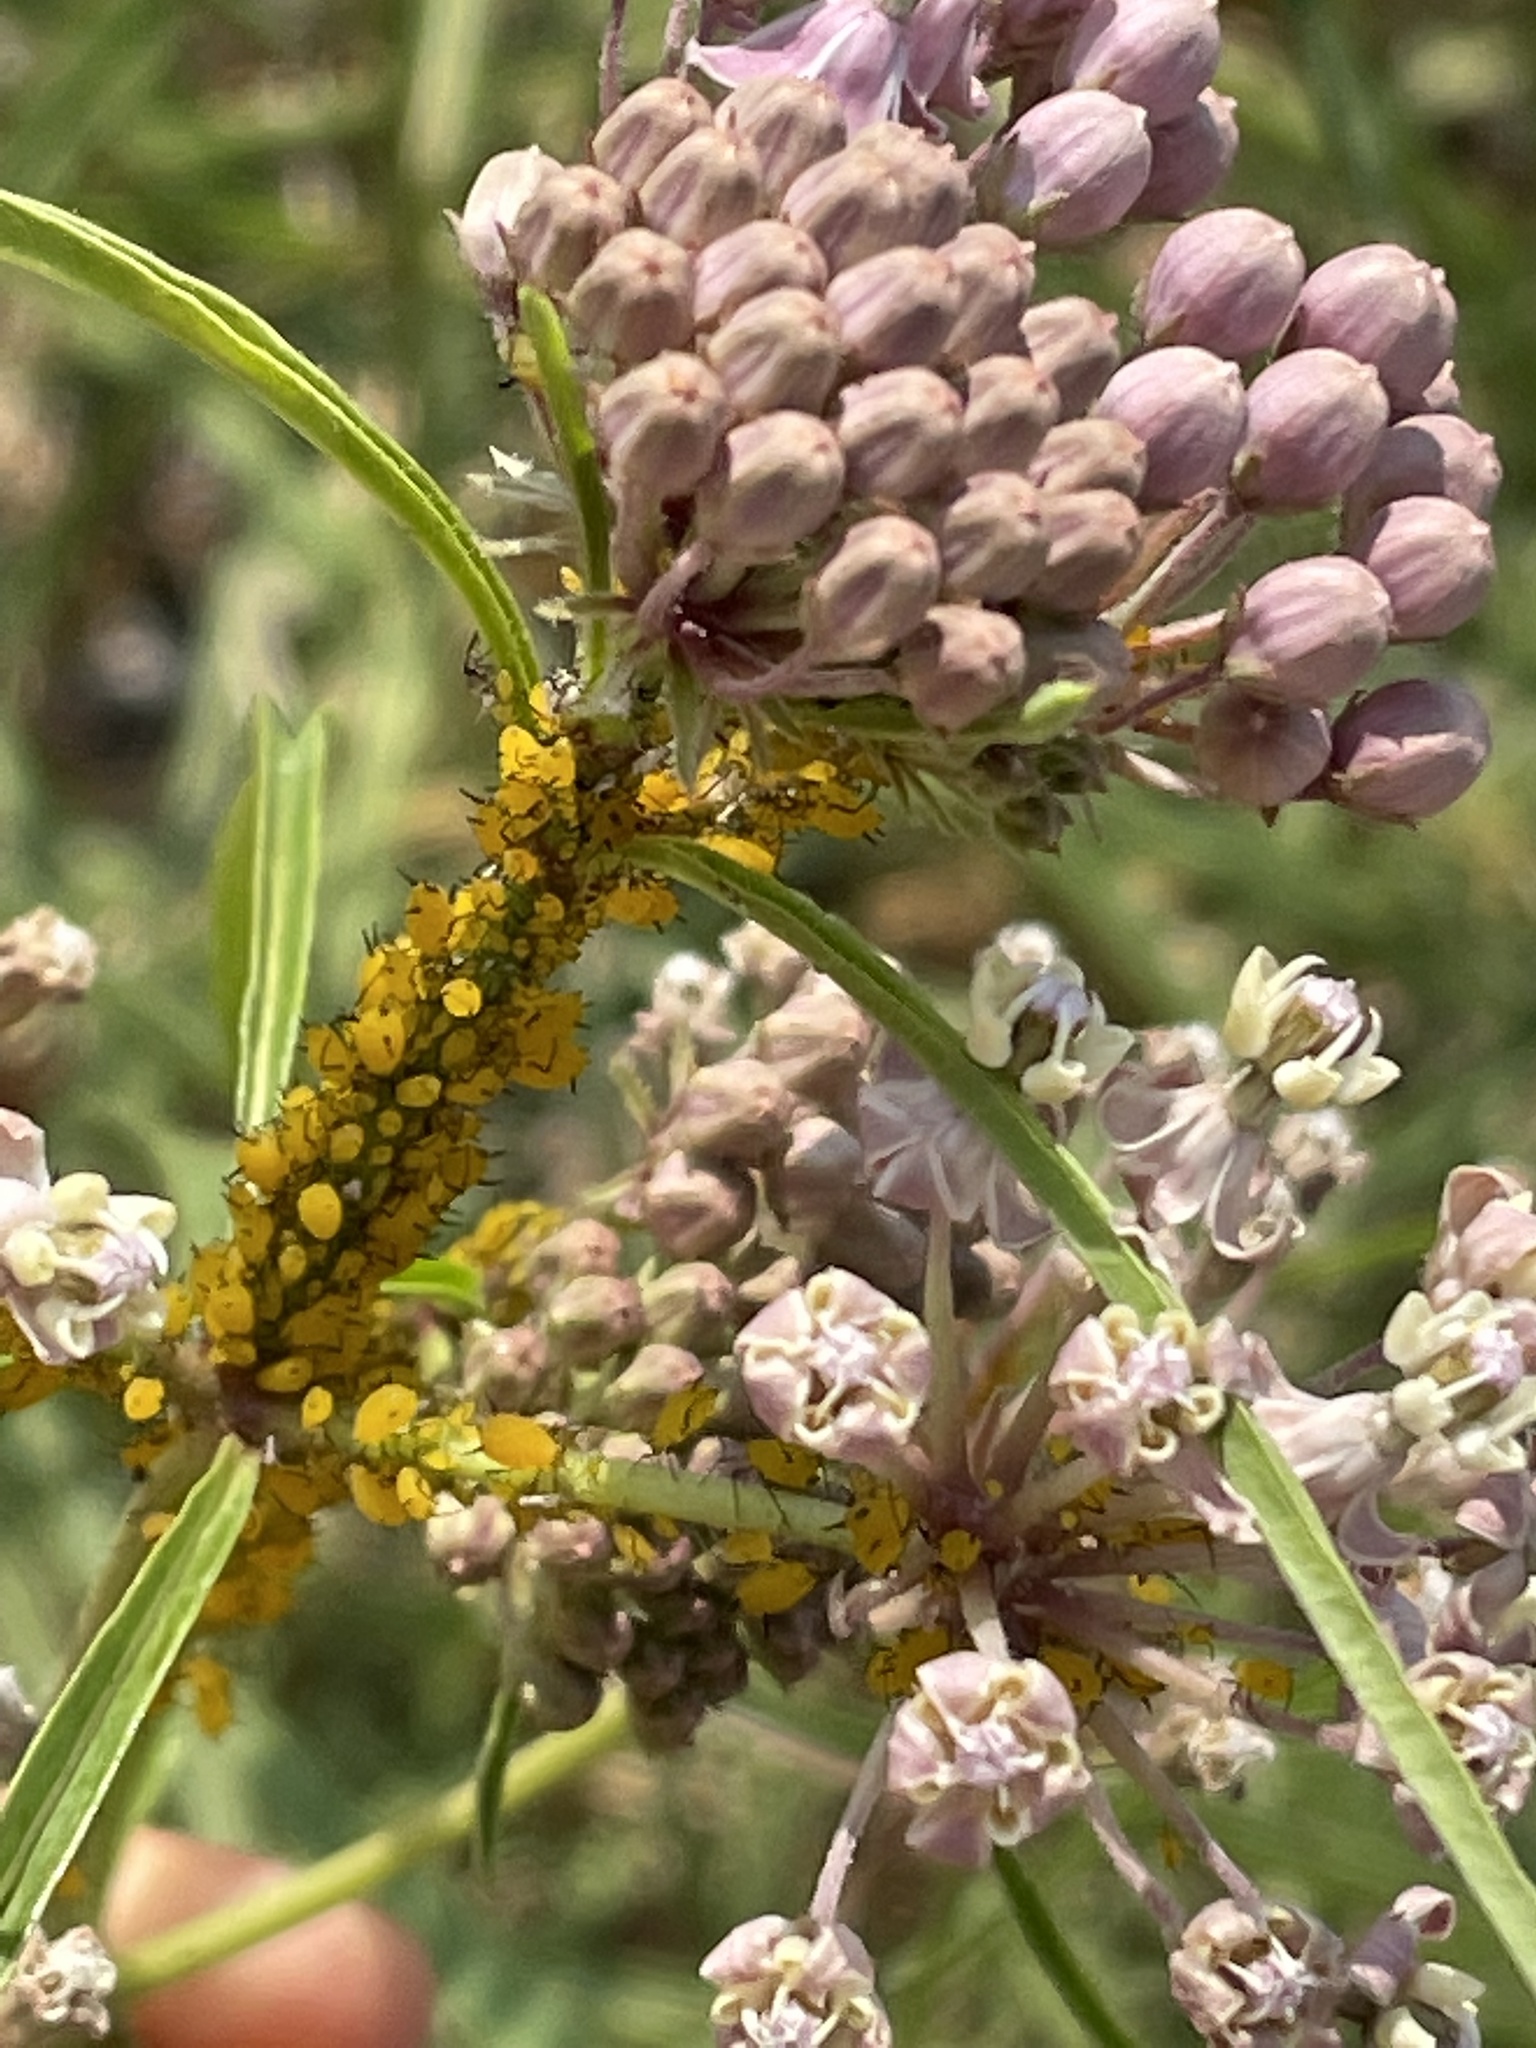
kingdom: Animalia
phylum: Arthropoda
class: Insecta
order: Hemiptera
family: Aphididae
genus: Aphis
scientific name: Aphis nerii
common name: Oleander aphid
